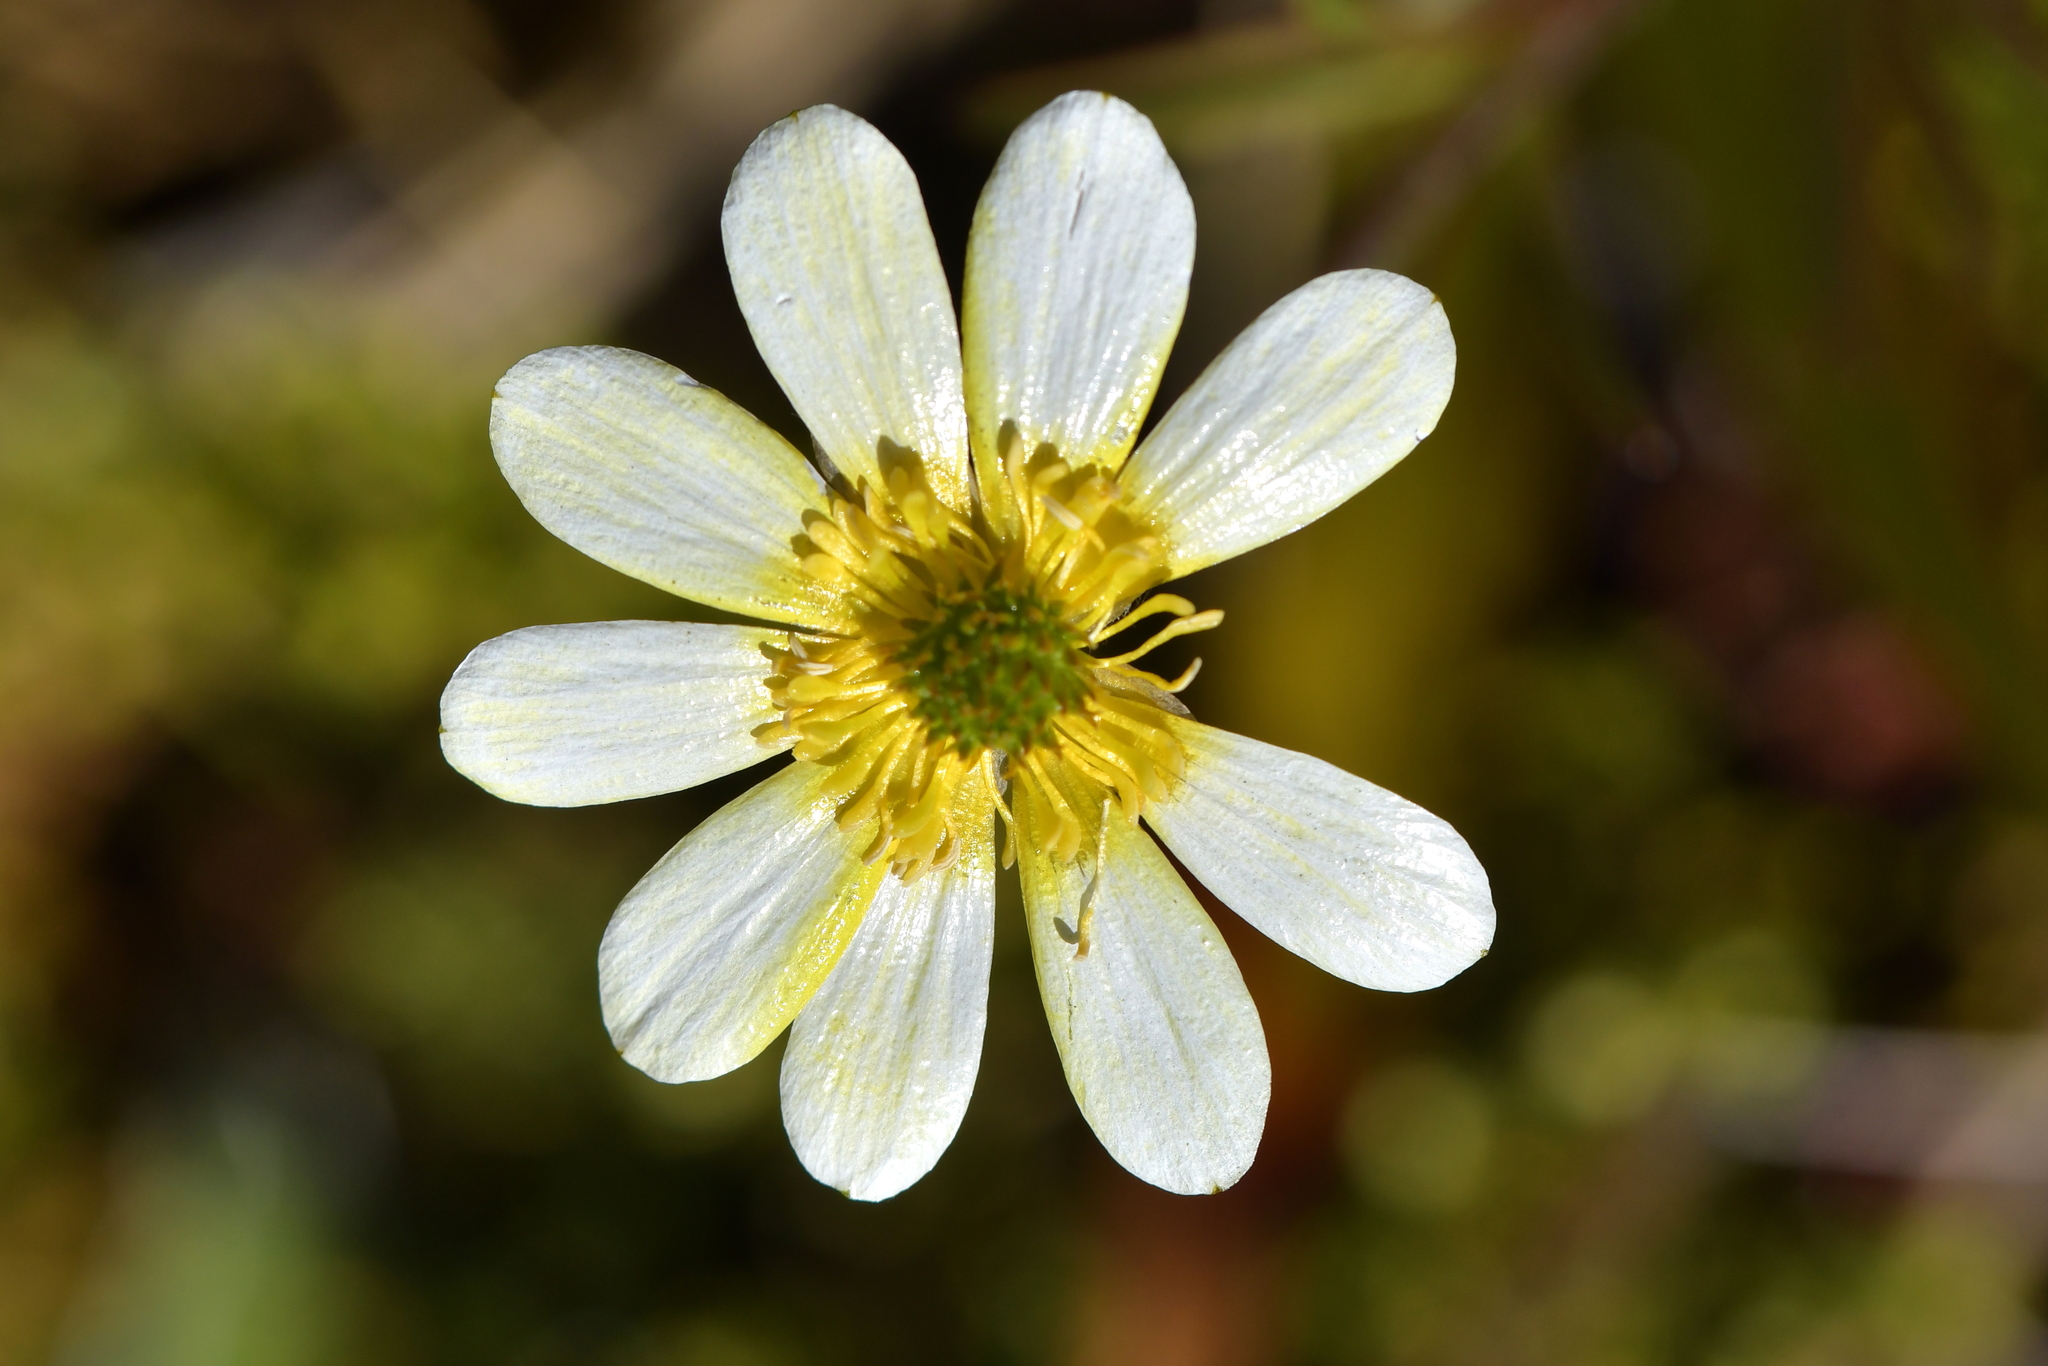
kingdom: Plantae
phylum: Tracheophyta
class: Magnoliopsida
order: Ranunculales
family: Ranunculaceae
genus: Ranunculus
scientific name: Ranunculus verticillatus
